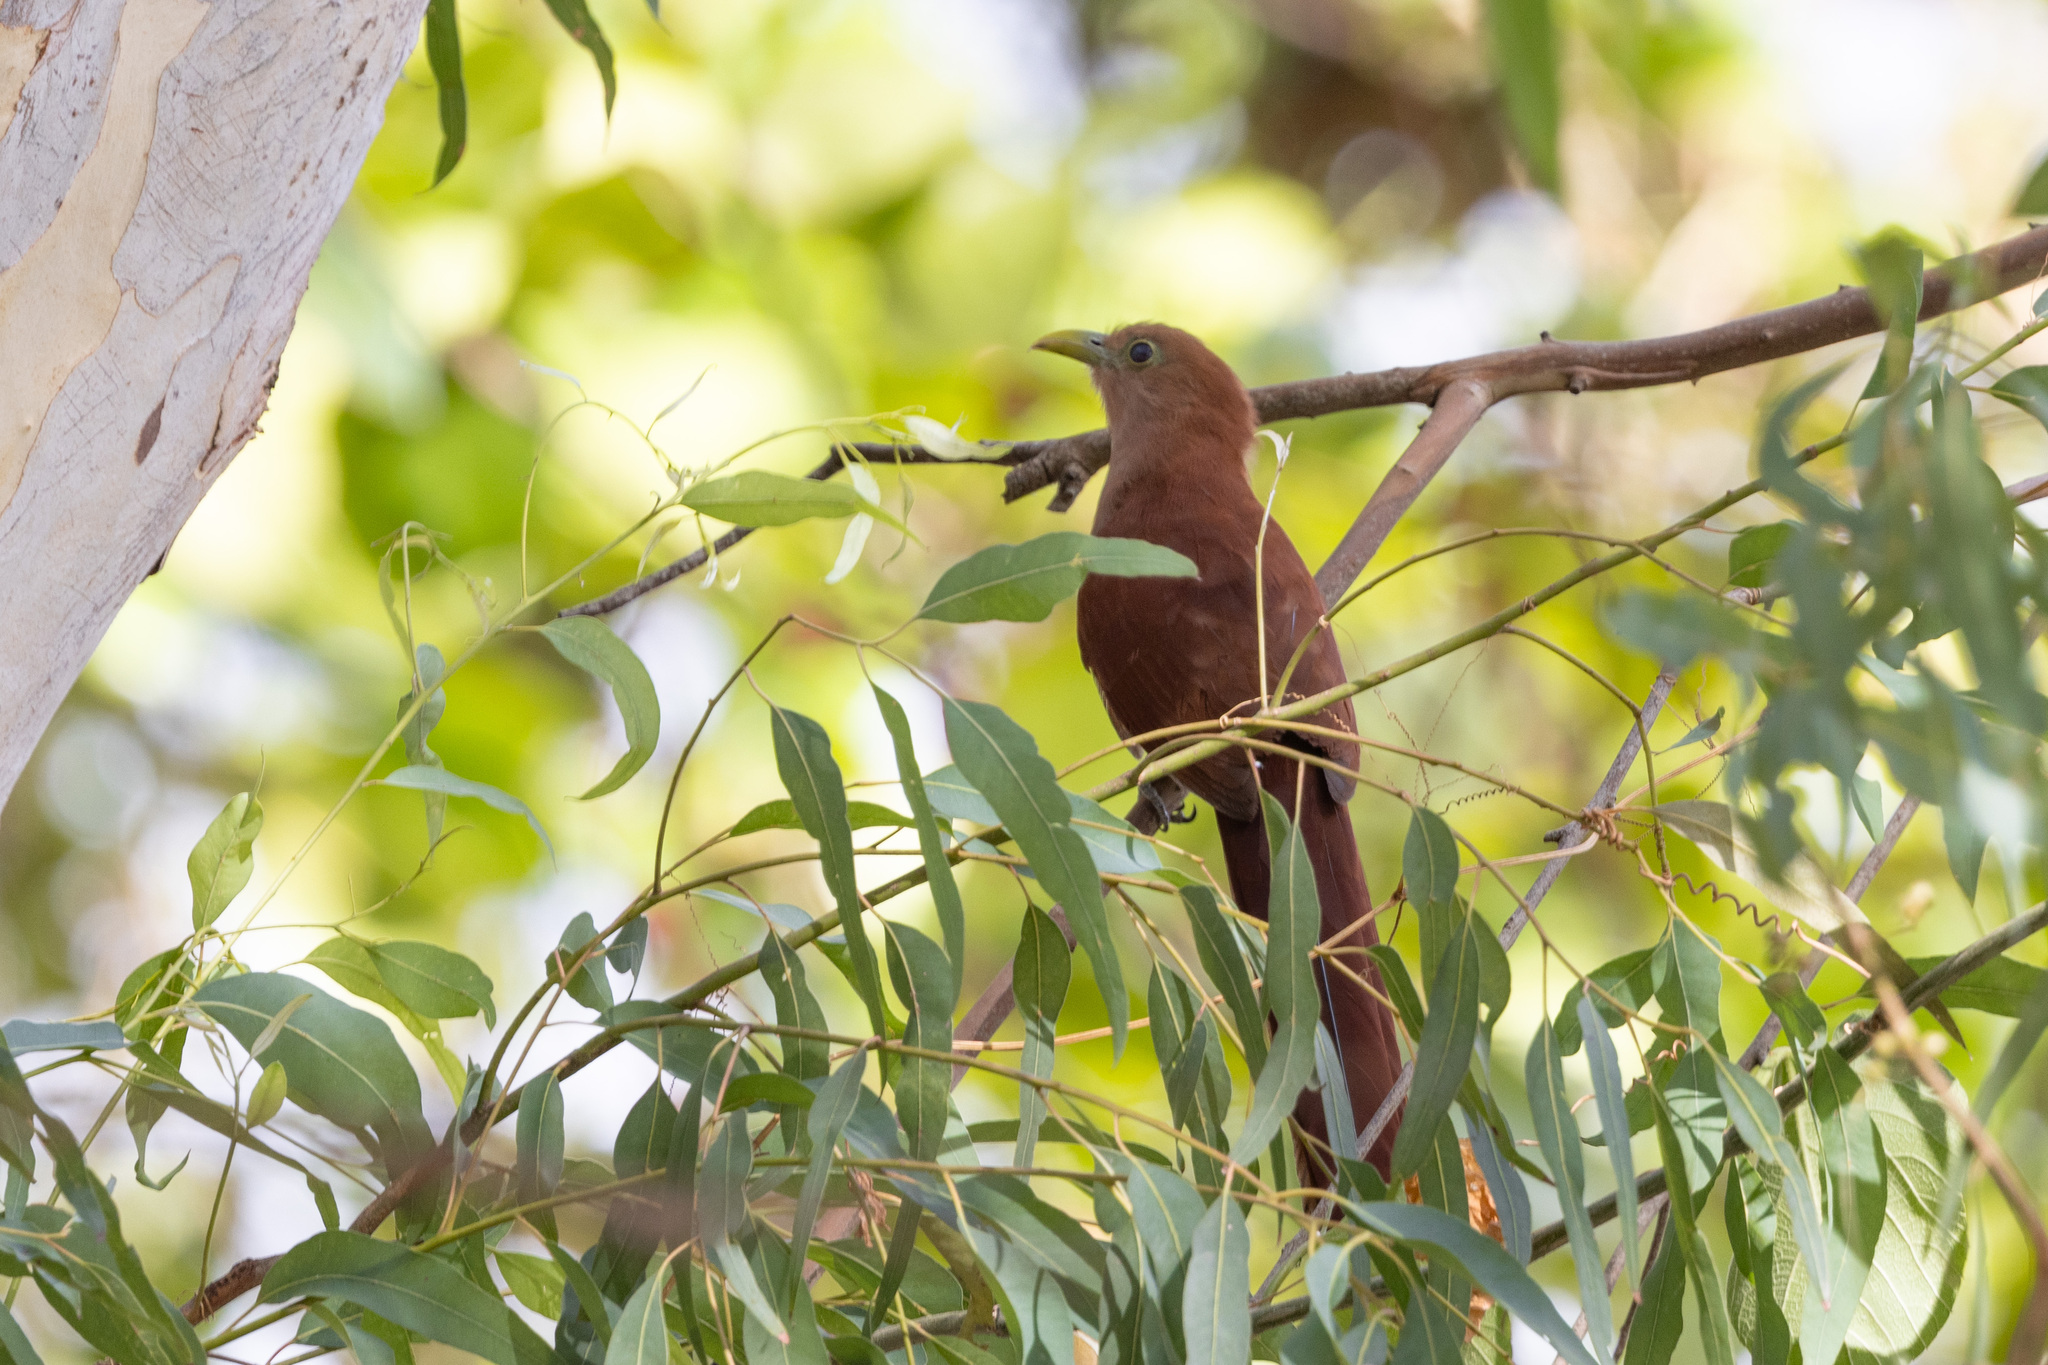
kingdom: Animalia
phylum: Chordata
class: Aves
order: Cuculiformes
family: Cuculidae
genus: Piaya
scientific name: Piaya cayana
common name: Squirrel cuckoo
